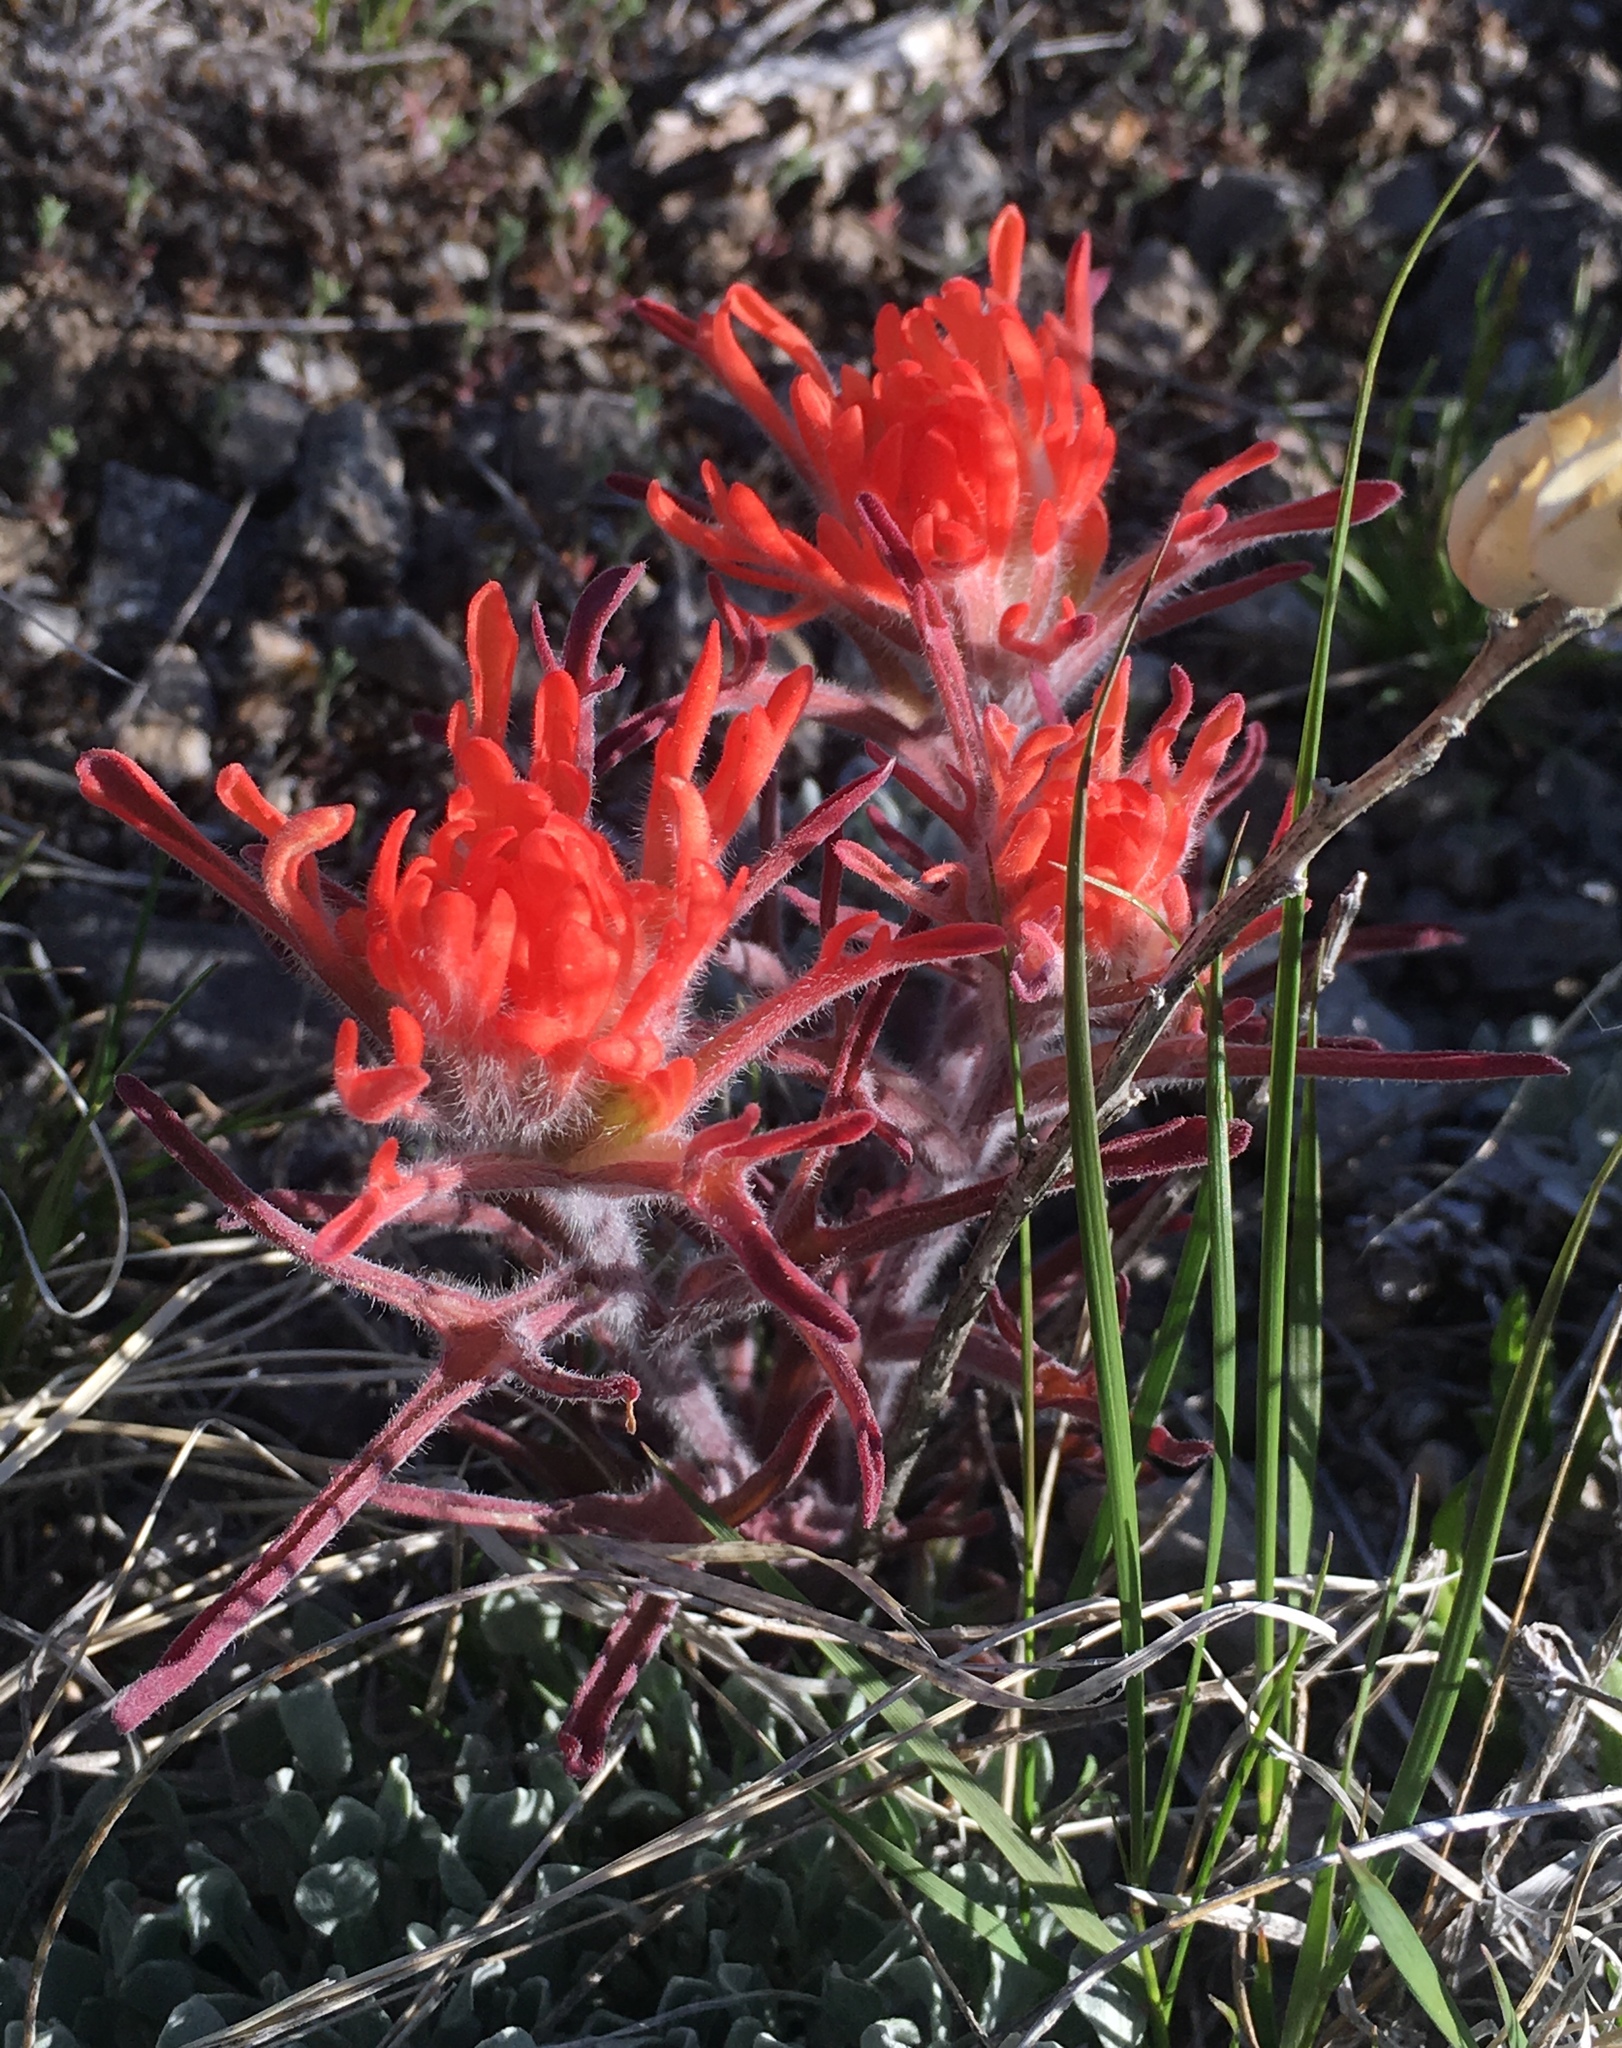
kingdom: Plantae
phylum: Tracheophyta
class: Magnoliopsida
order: Lamiales
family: Orobanchaceae
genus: Castilleja
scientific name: Castilleja chromosa
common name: Desert paintbrush
